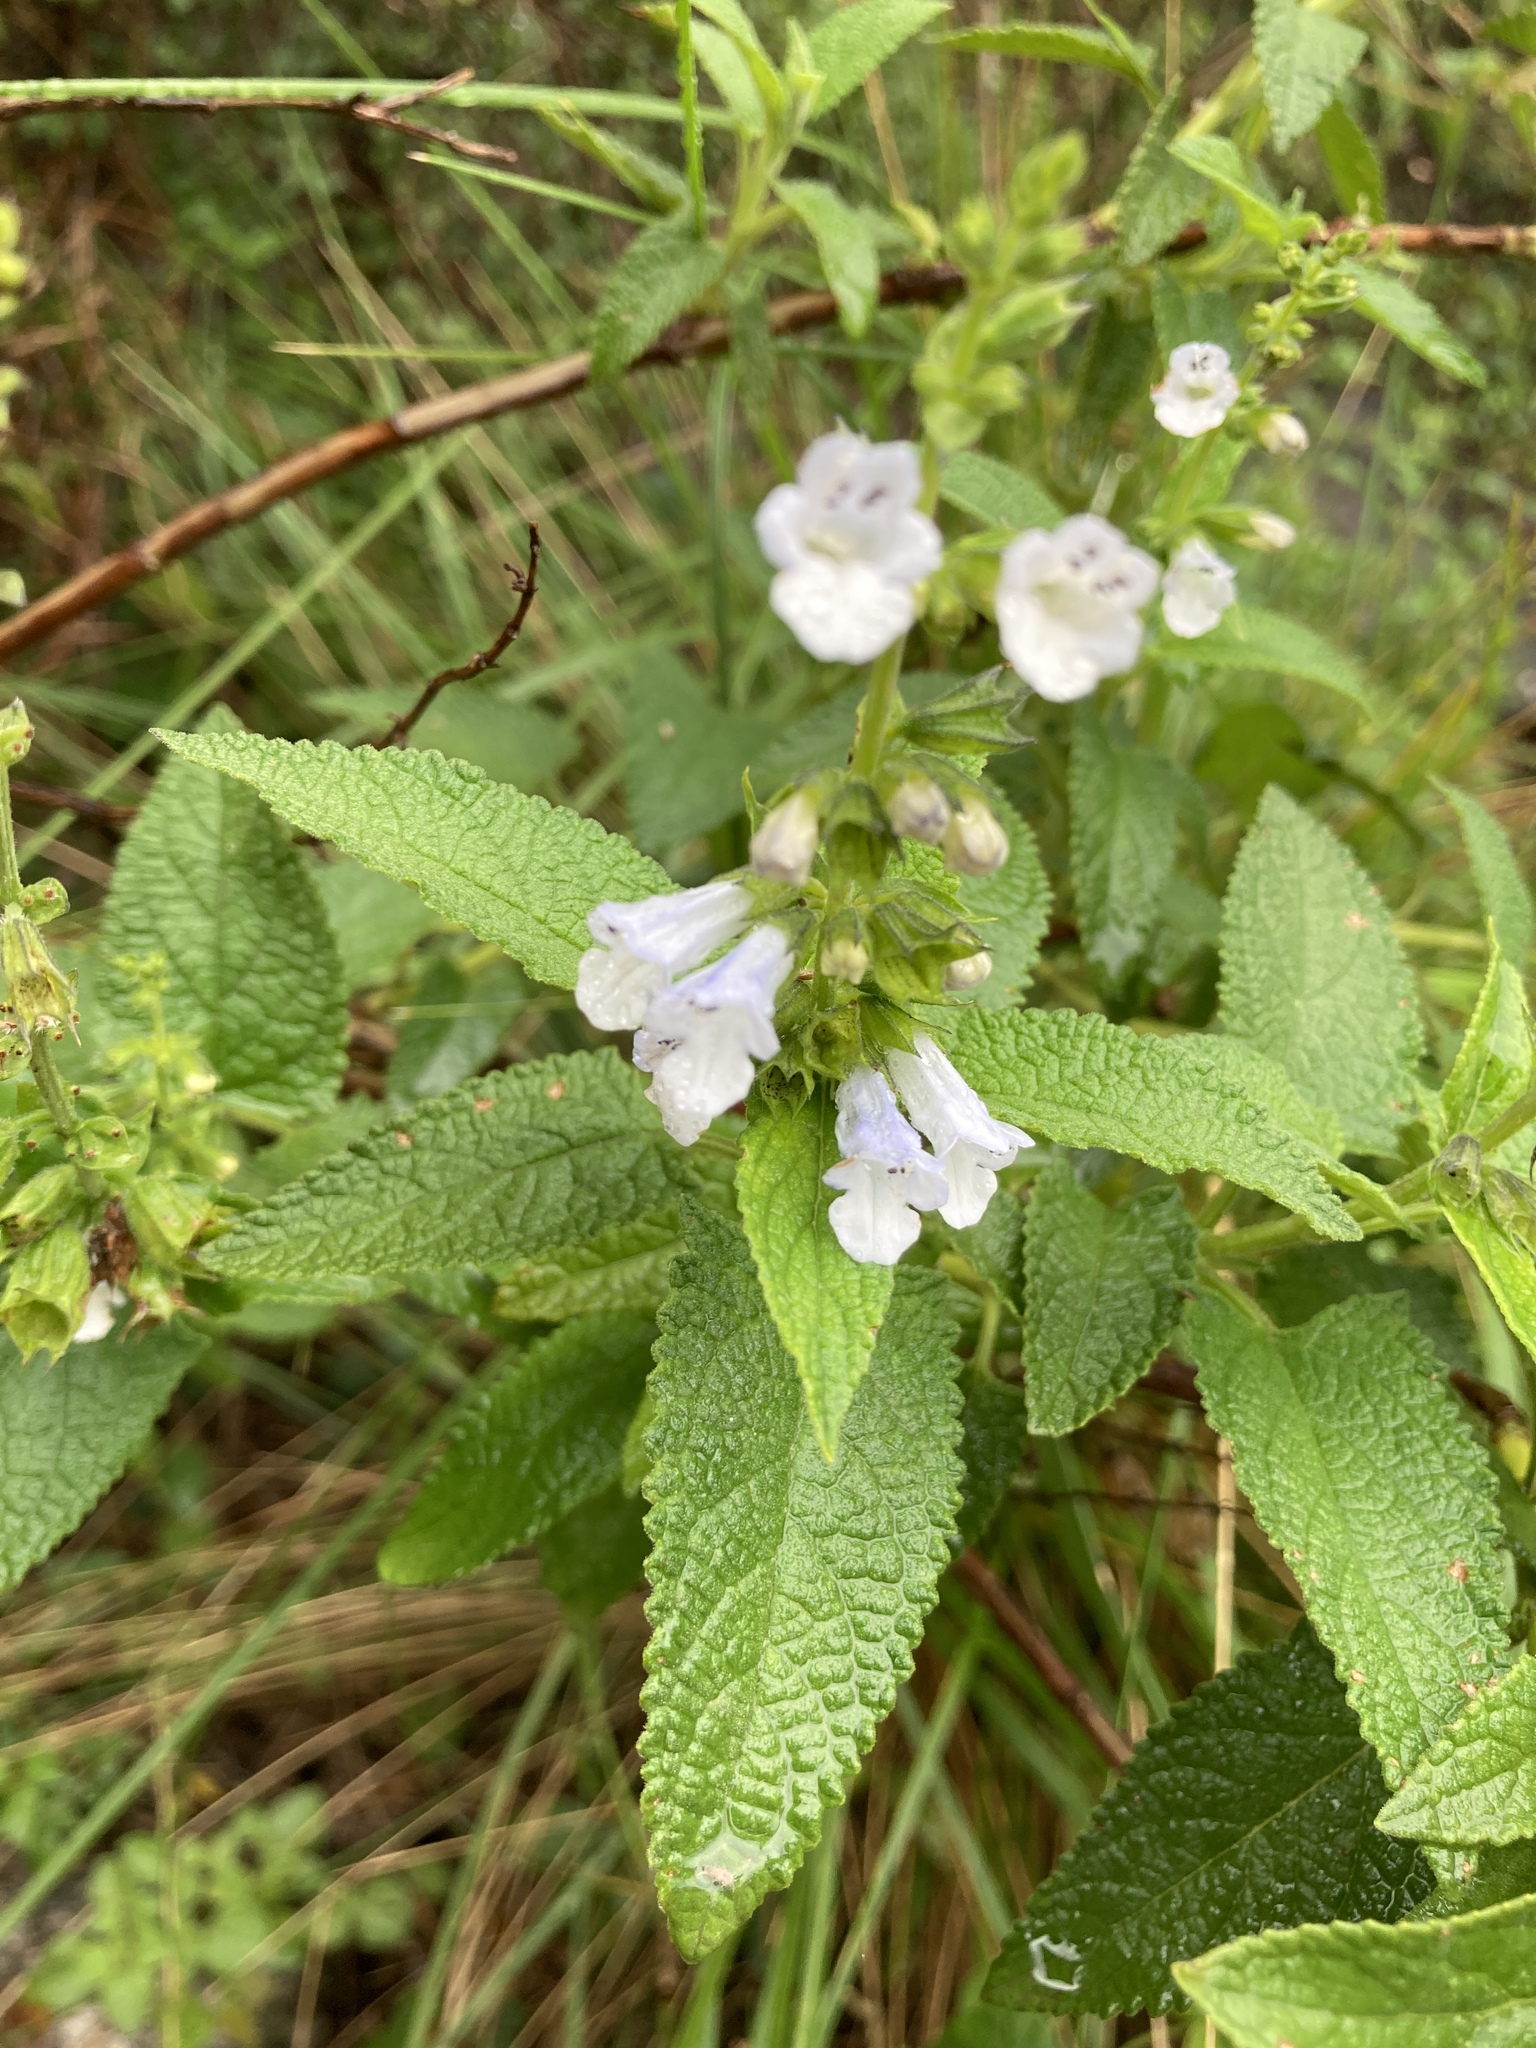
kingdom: Plantae
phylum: Tracheophyta
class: Magnoliopsida
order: Lamiales
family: Lamiaceae
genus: Lepechinia
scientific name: Lepechinia floribunda
